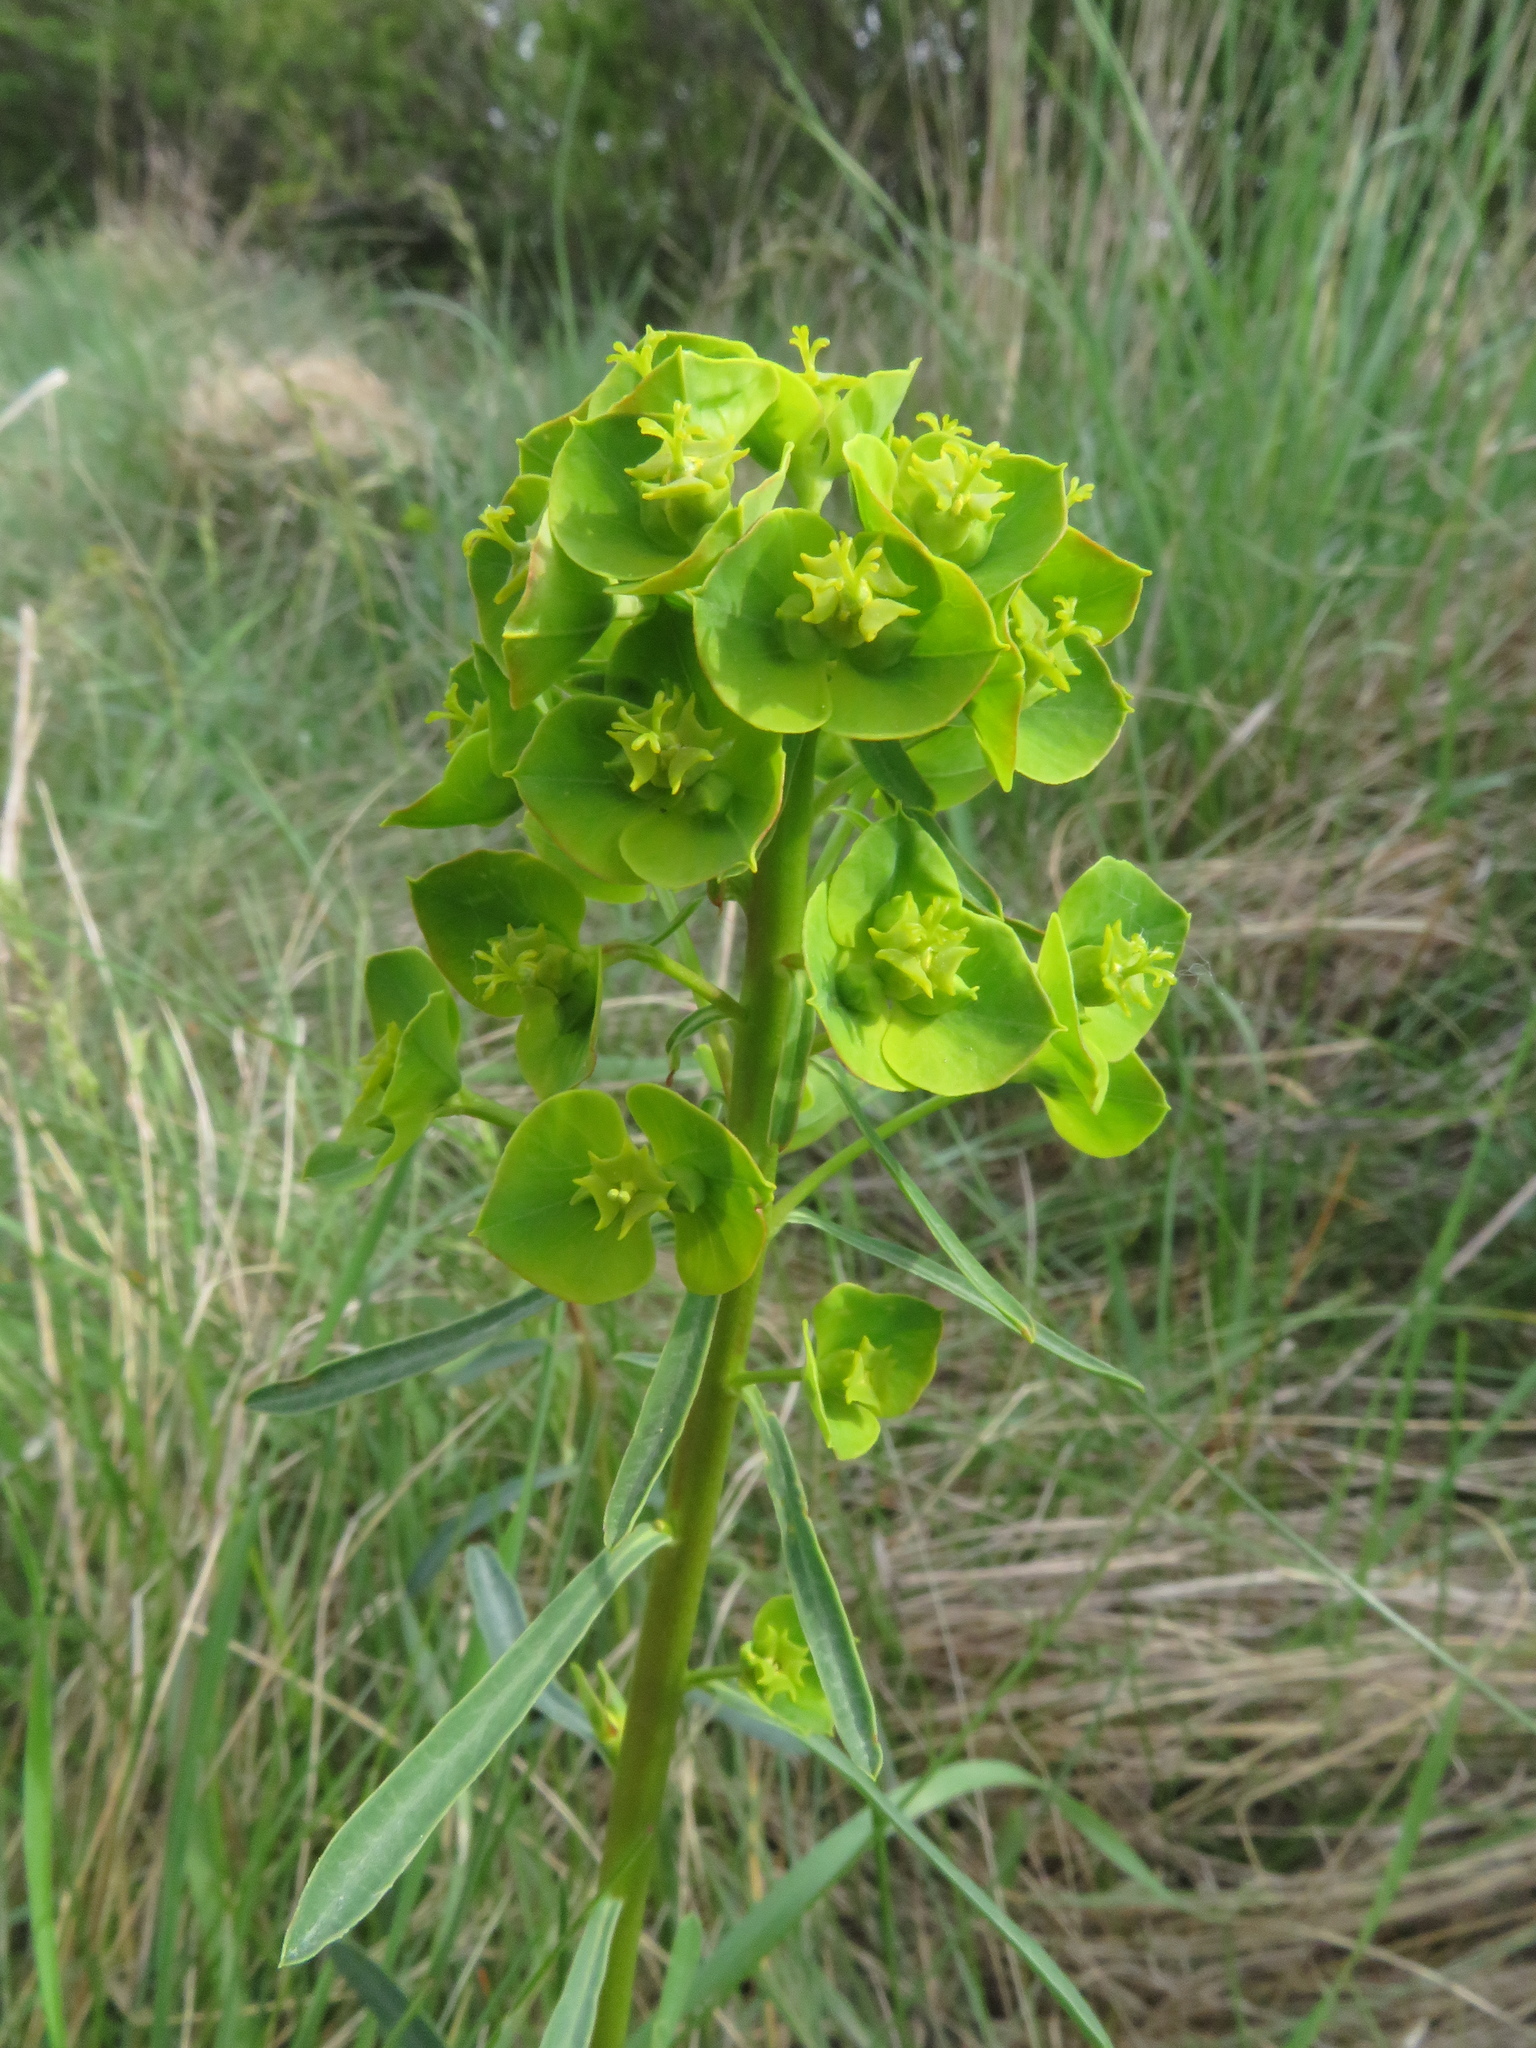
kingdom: Plantae
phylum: Tracheophyta
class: Magnoliopsida
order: Malpighiales
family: Euphorbiaceae
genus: Euphorbia
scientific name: Euphorbia esula
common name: Leafy spurge
